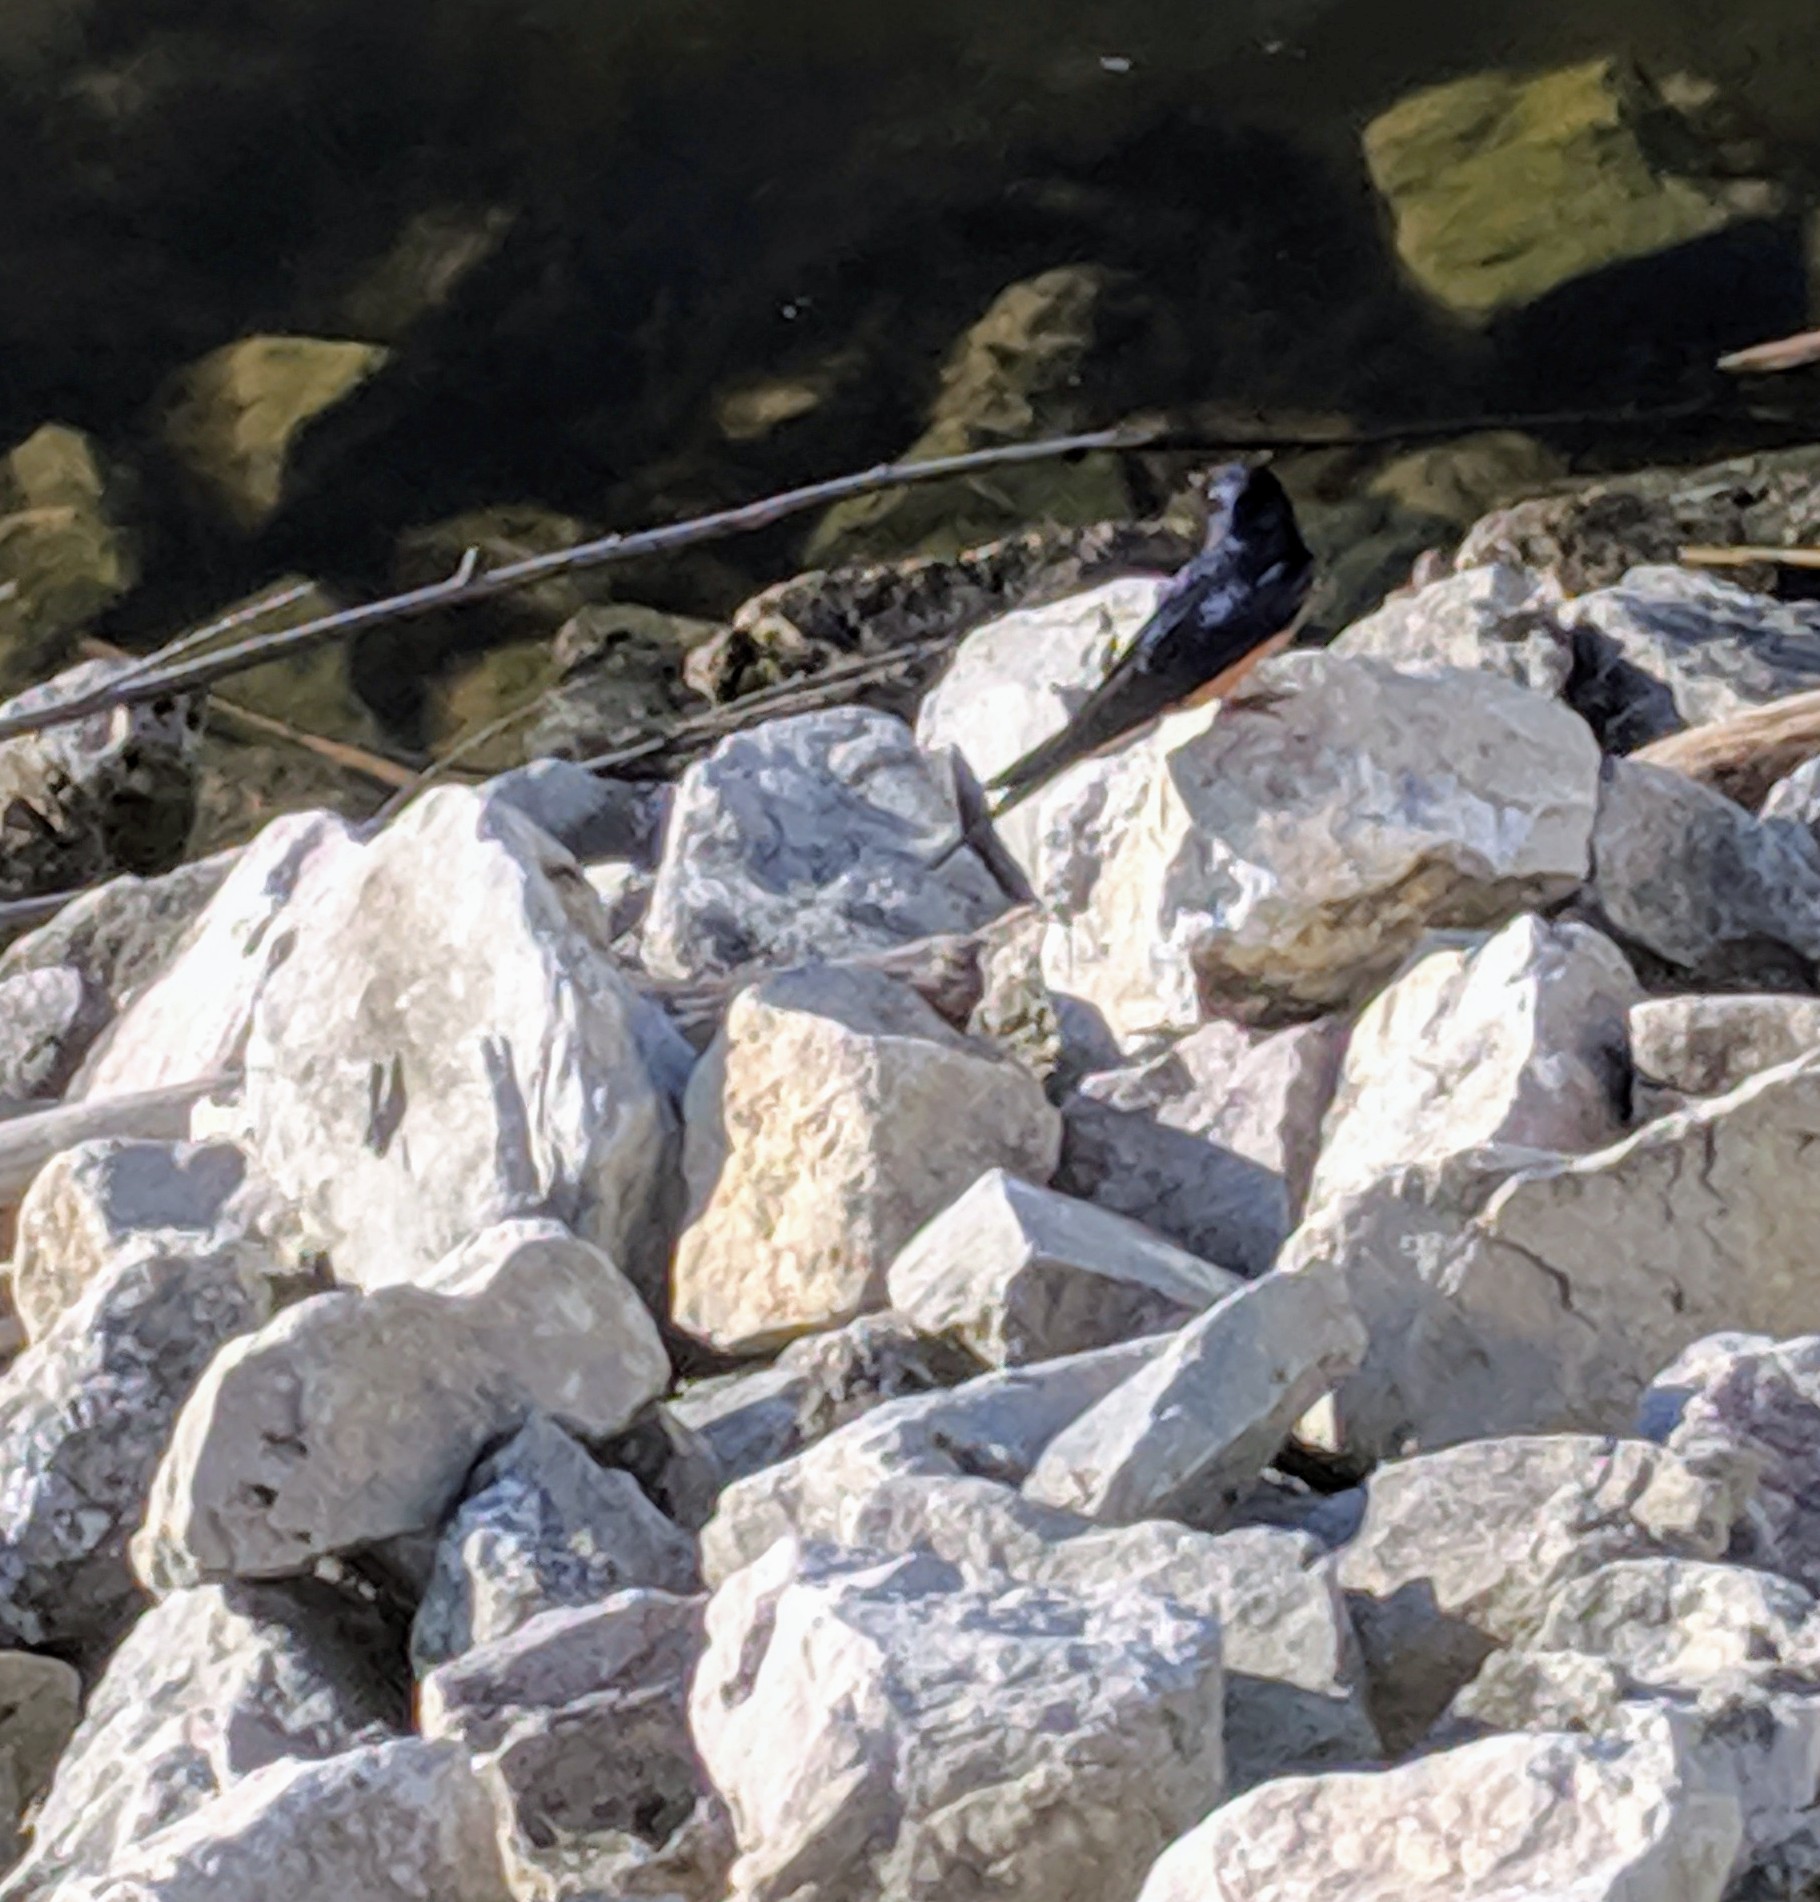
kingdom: Animalia
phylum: Chordata
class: Aves
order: Passeriformes
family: Hirundinidae
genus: Hirundo
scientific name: Hirundo rustica
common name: Barn swallow
